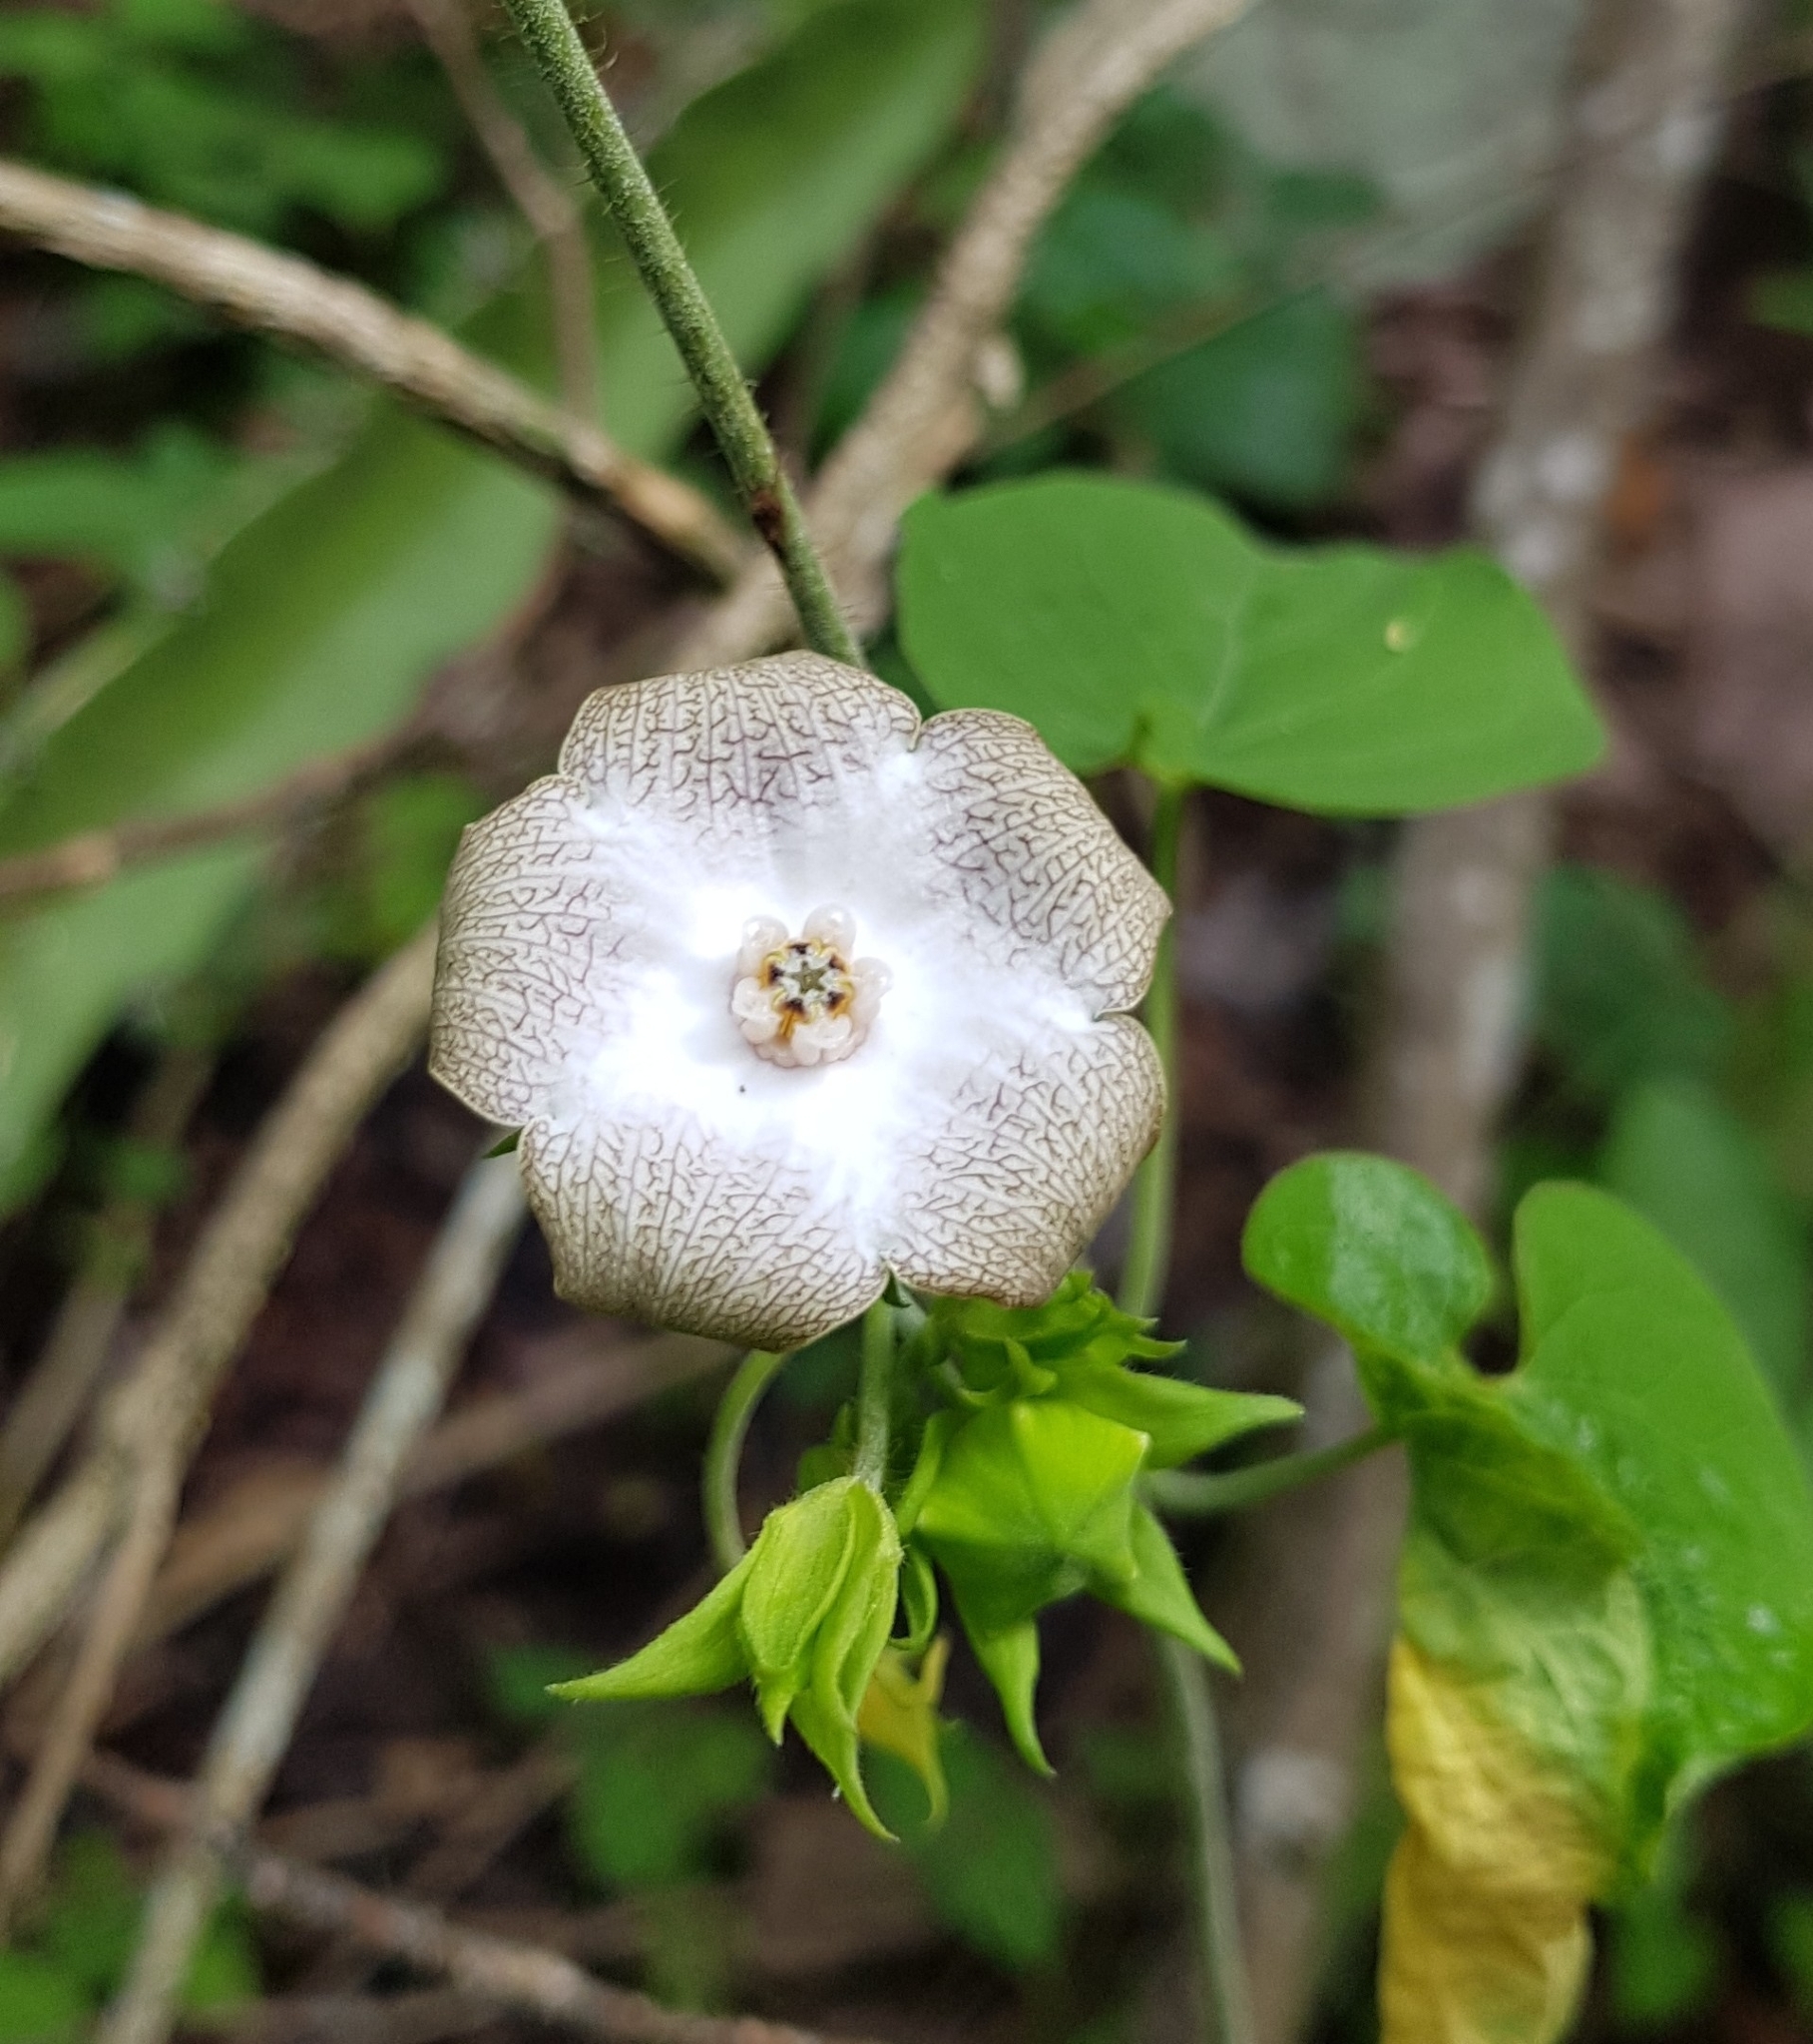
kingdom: Plantae
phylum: Tracheophyta
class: Magnoliopsida
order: Gentianales
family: Apocynaceae
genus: Polystemma
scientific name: Polystemma guatemalense
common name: Arborescente rattan
